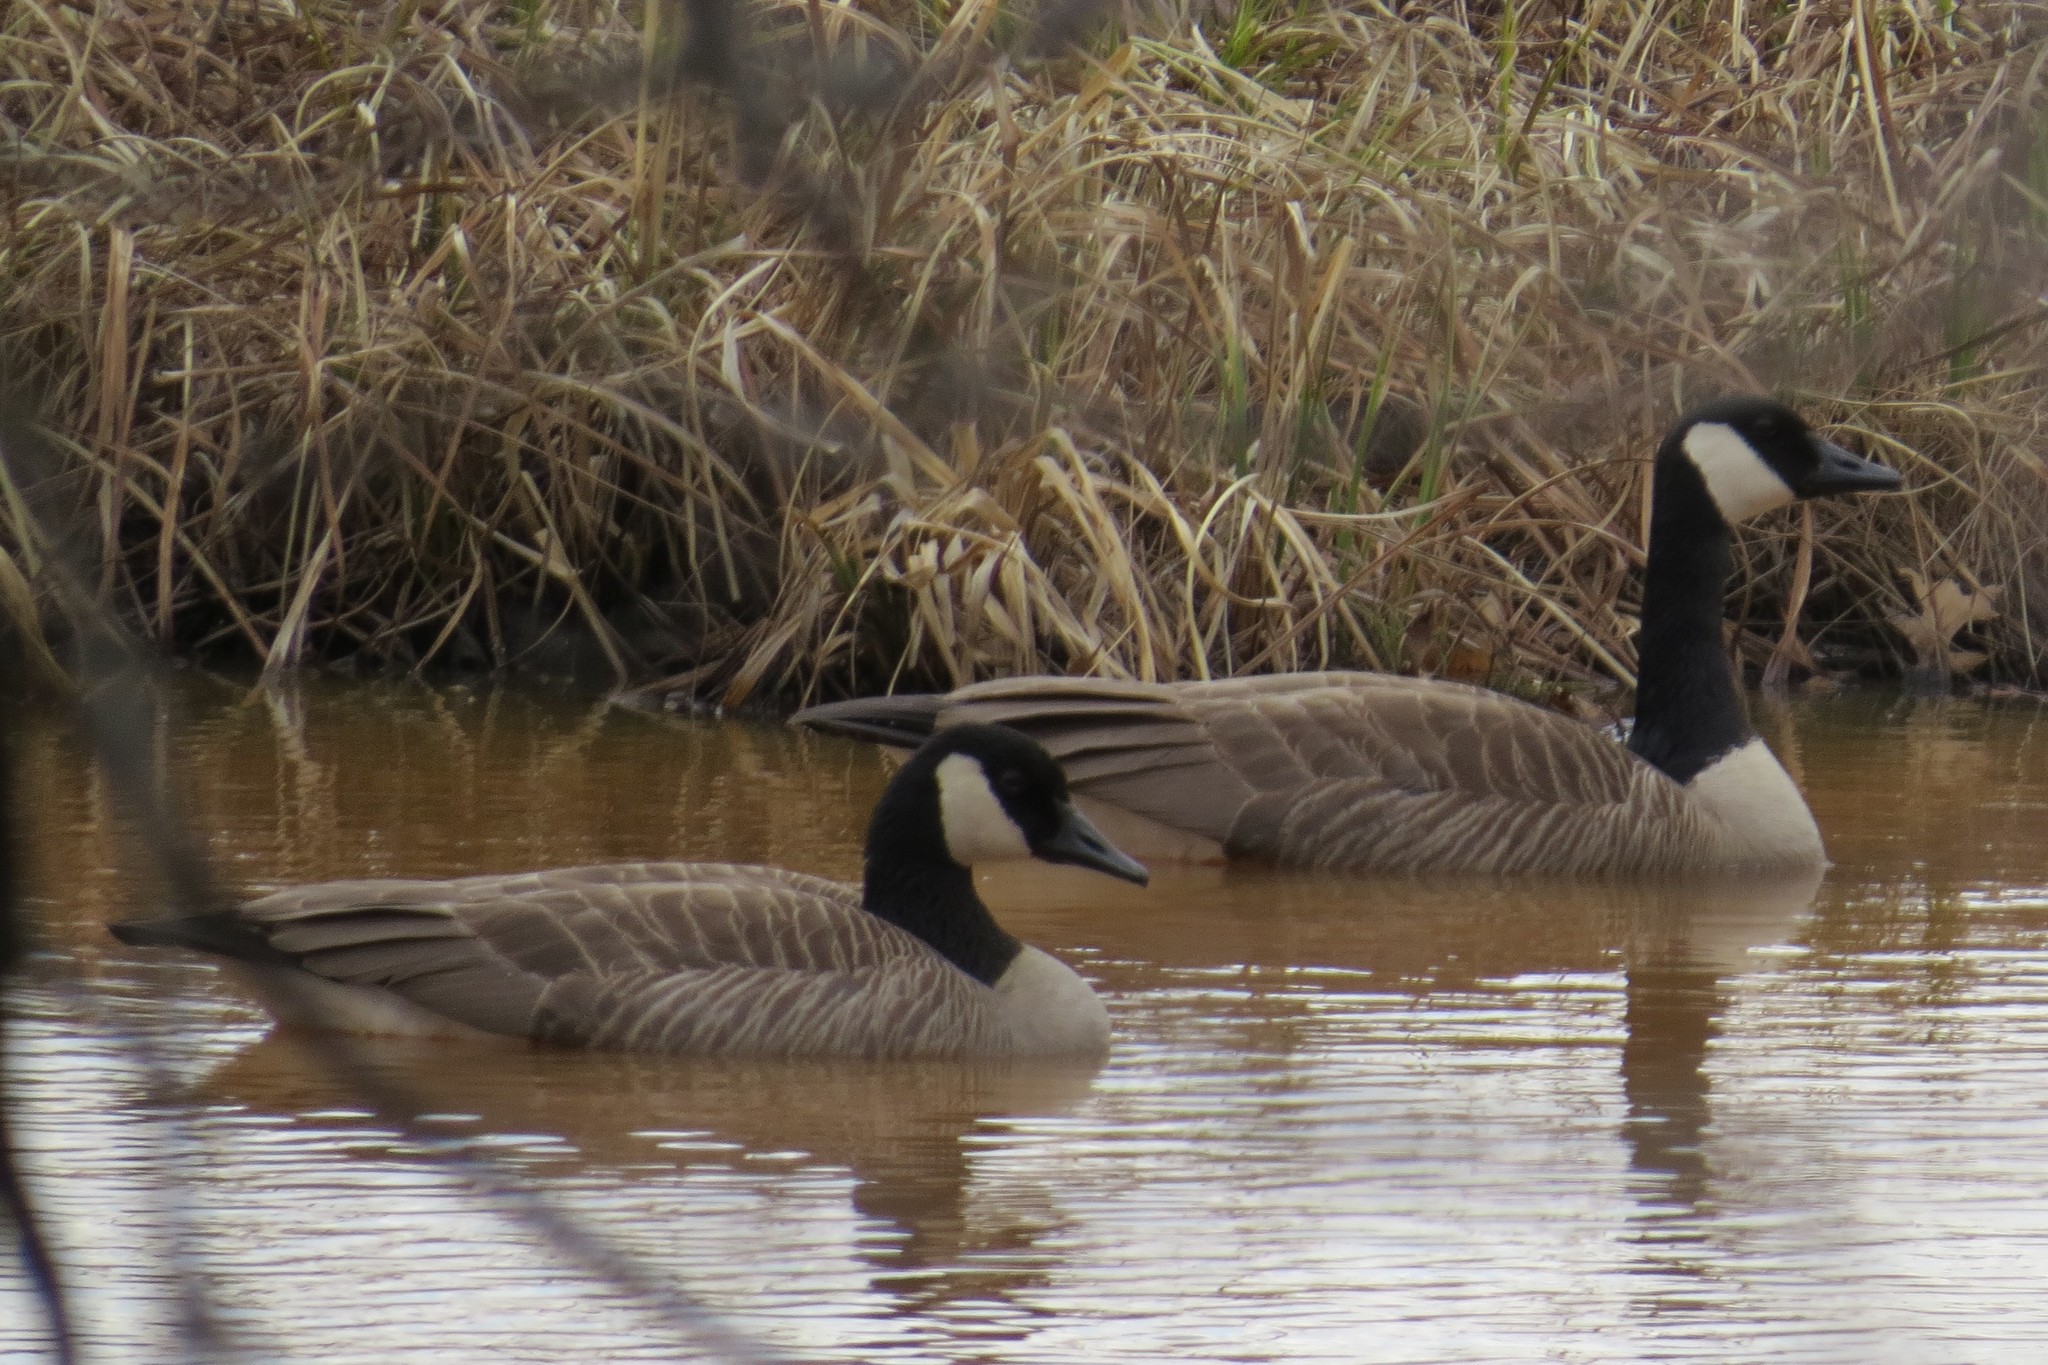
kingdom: Animalia
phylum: Chordata
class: Aves
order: Anseriformes
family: Anatidae
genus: Branta
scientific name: Branta canadensis
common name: Canada goose
